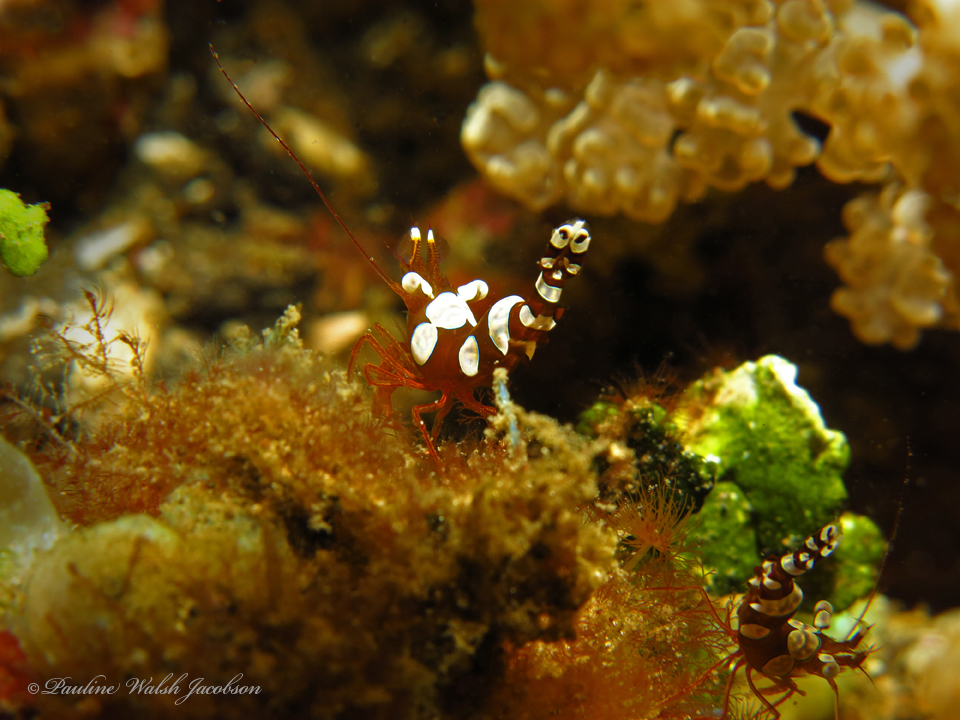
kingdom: Animalia
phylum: Arthropoda
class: Malacostraca
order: Decapoda
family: Thoridae
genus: Thor
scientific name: Thor amboinensis
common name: Squat anemone shrimp
